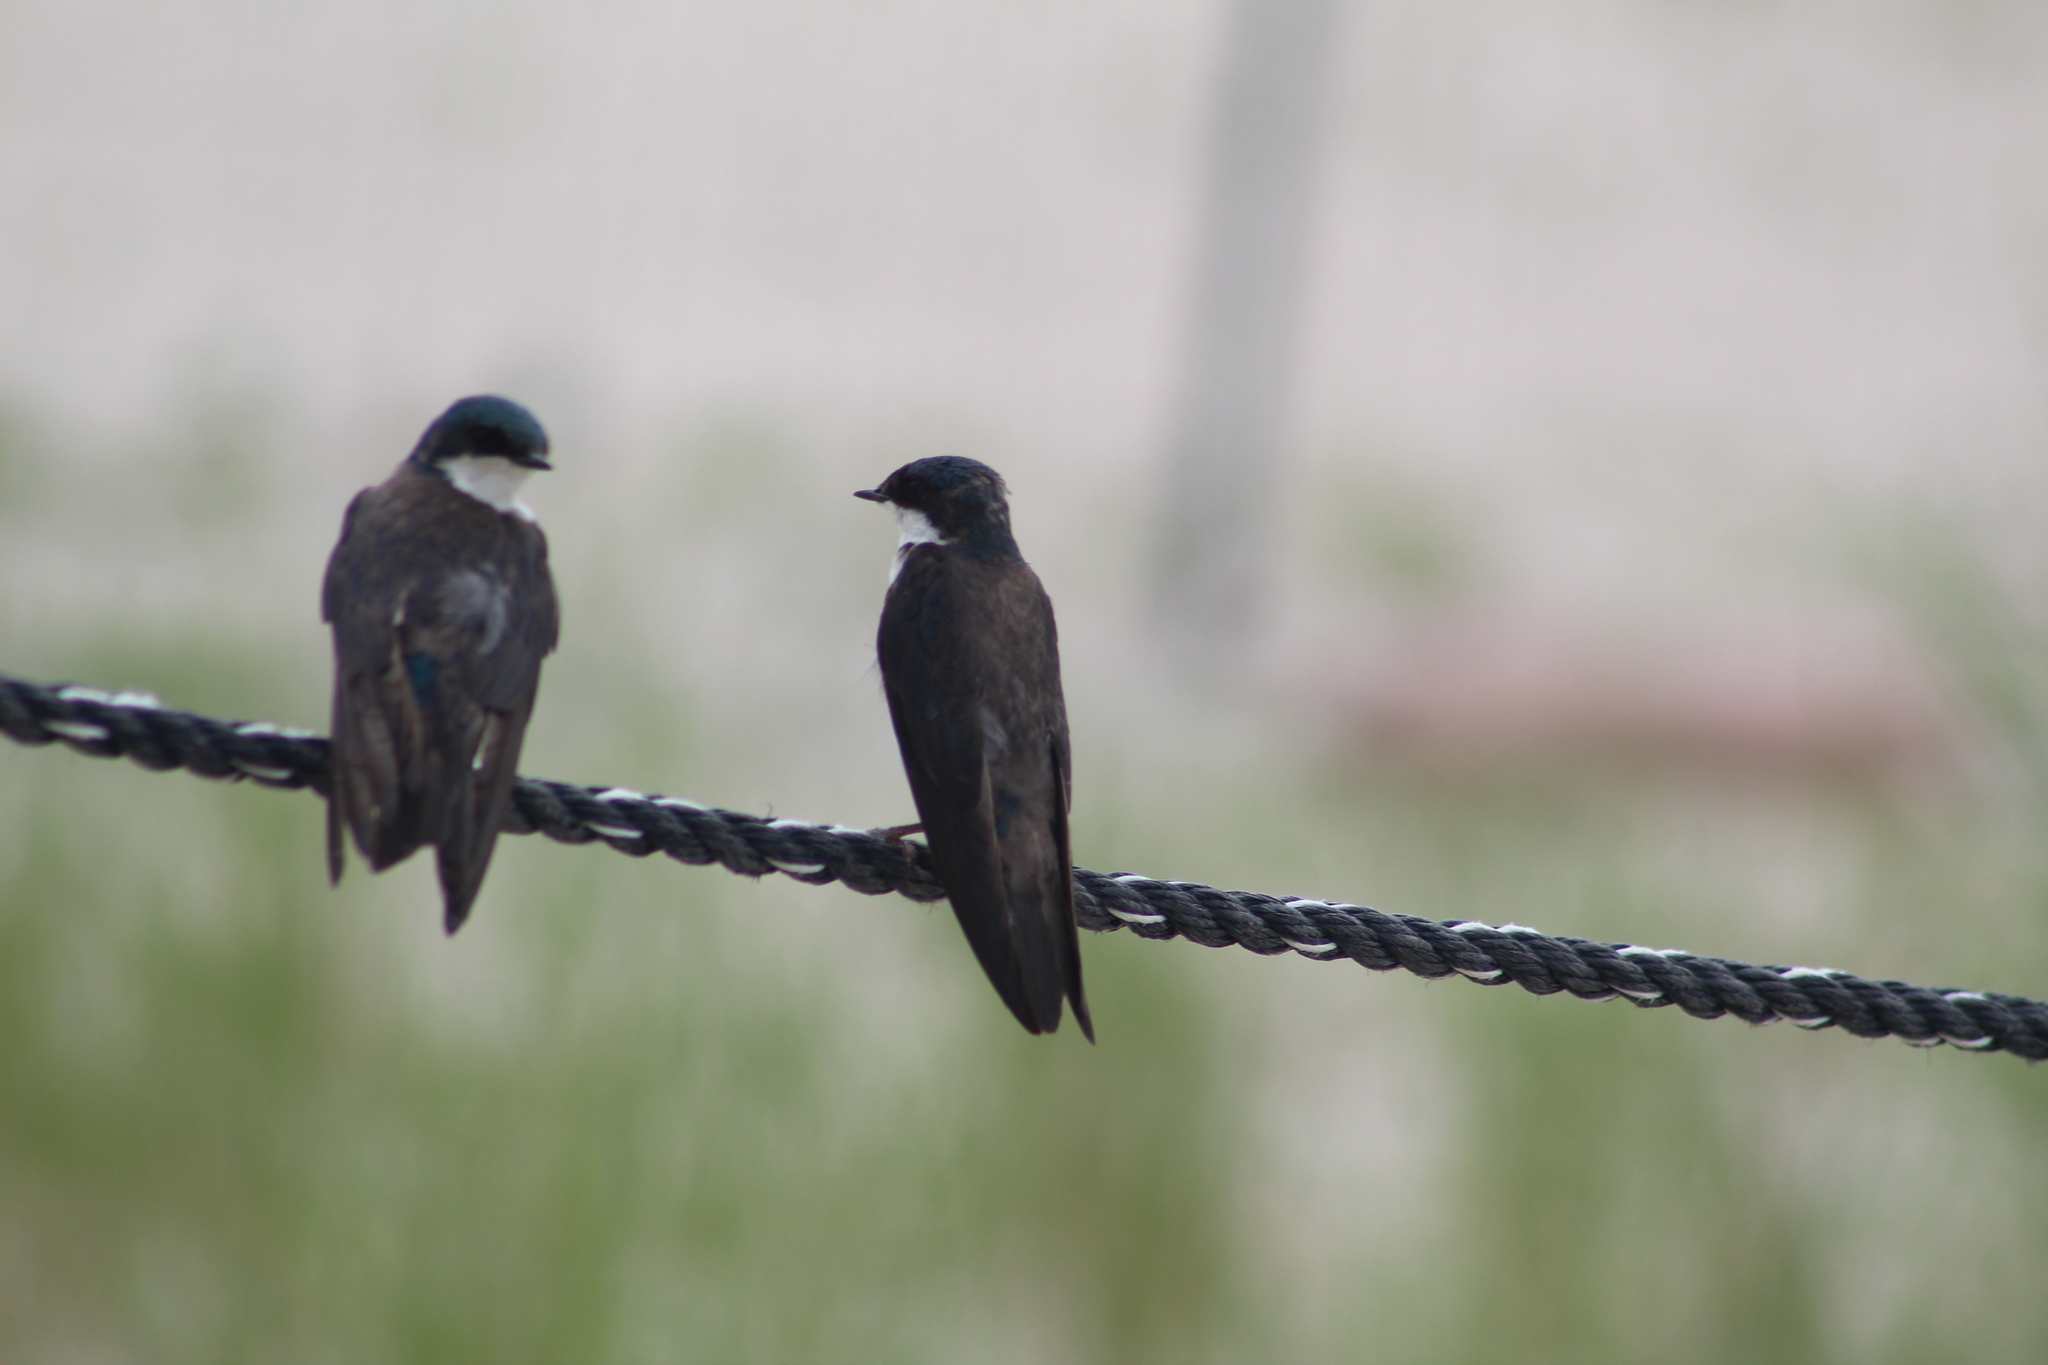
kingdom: Animalia
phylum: Chordata
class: Aves
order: Passeriformes
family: Hirundinidae
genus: Tachycineta
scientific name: Tachycineta bicolor
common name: Tree swallow
